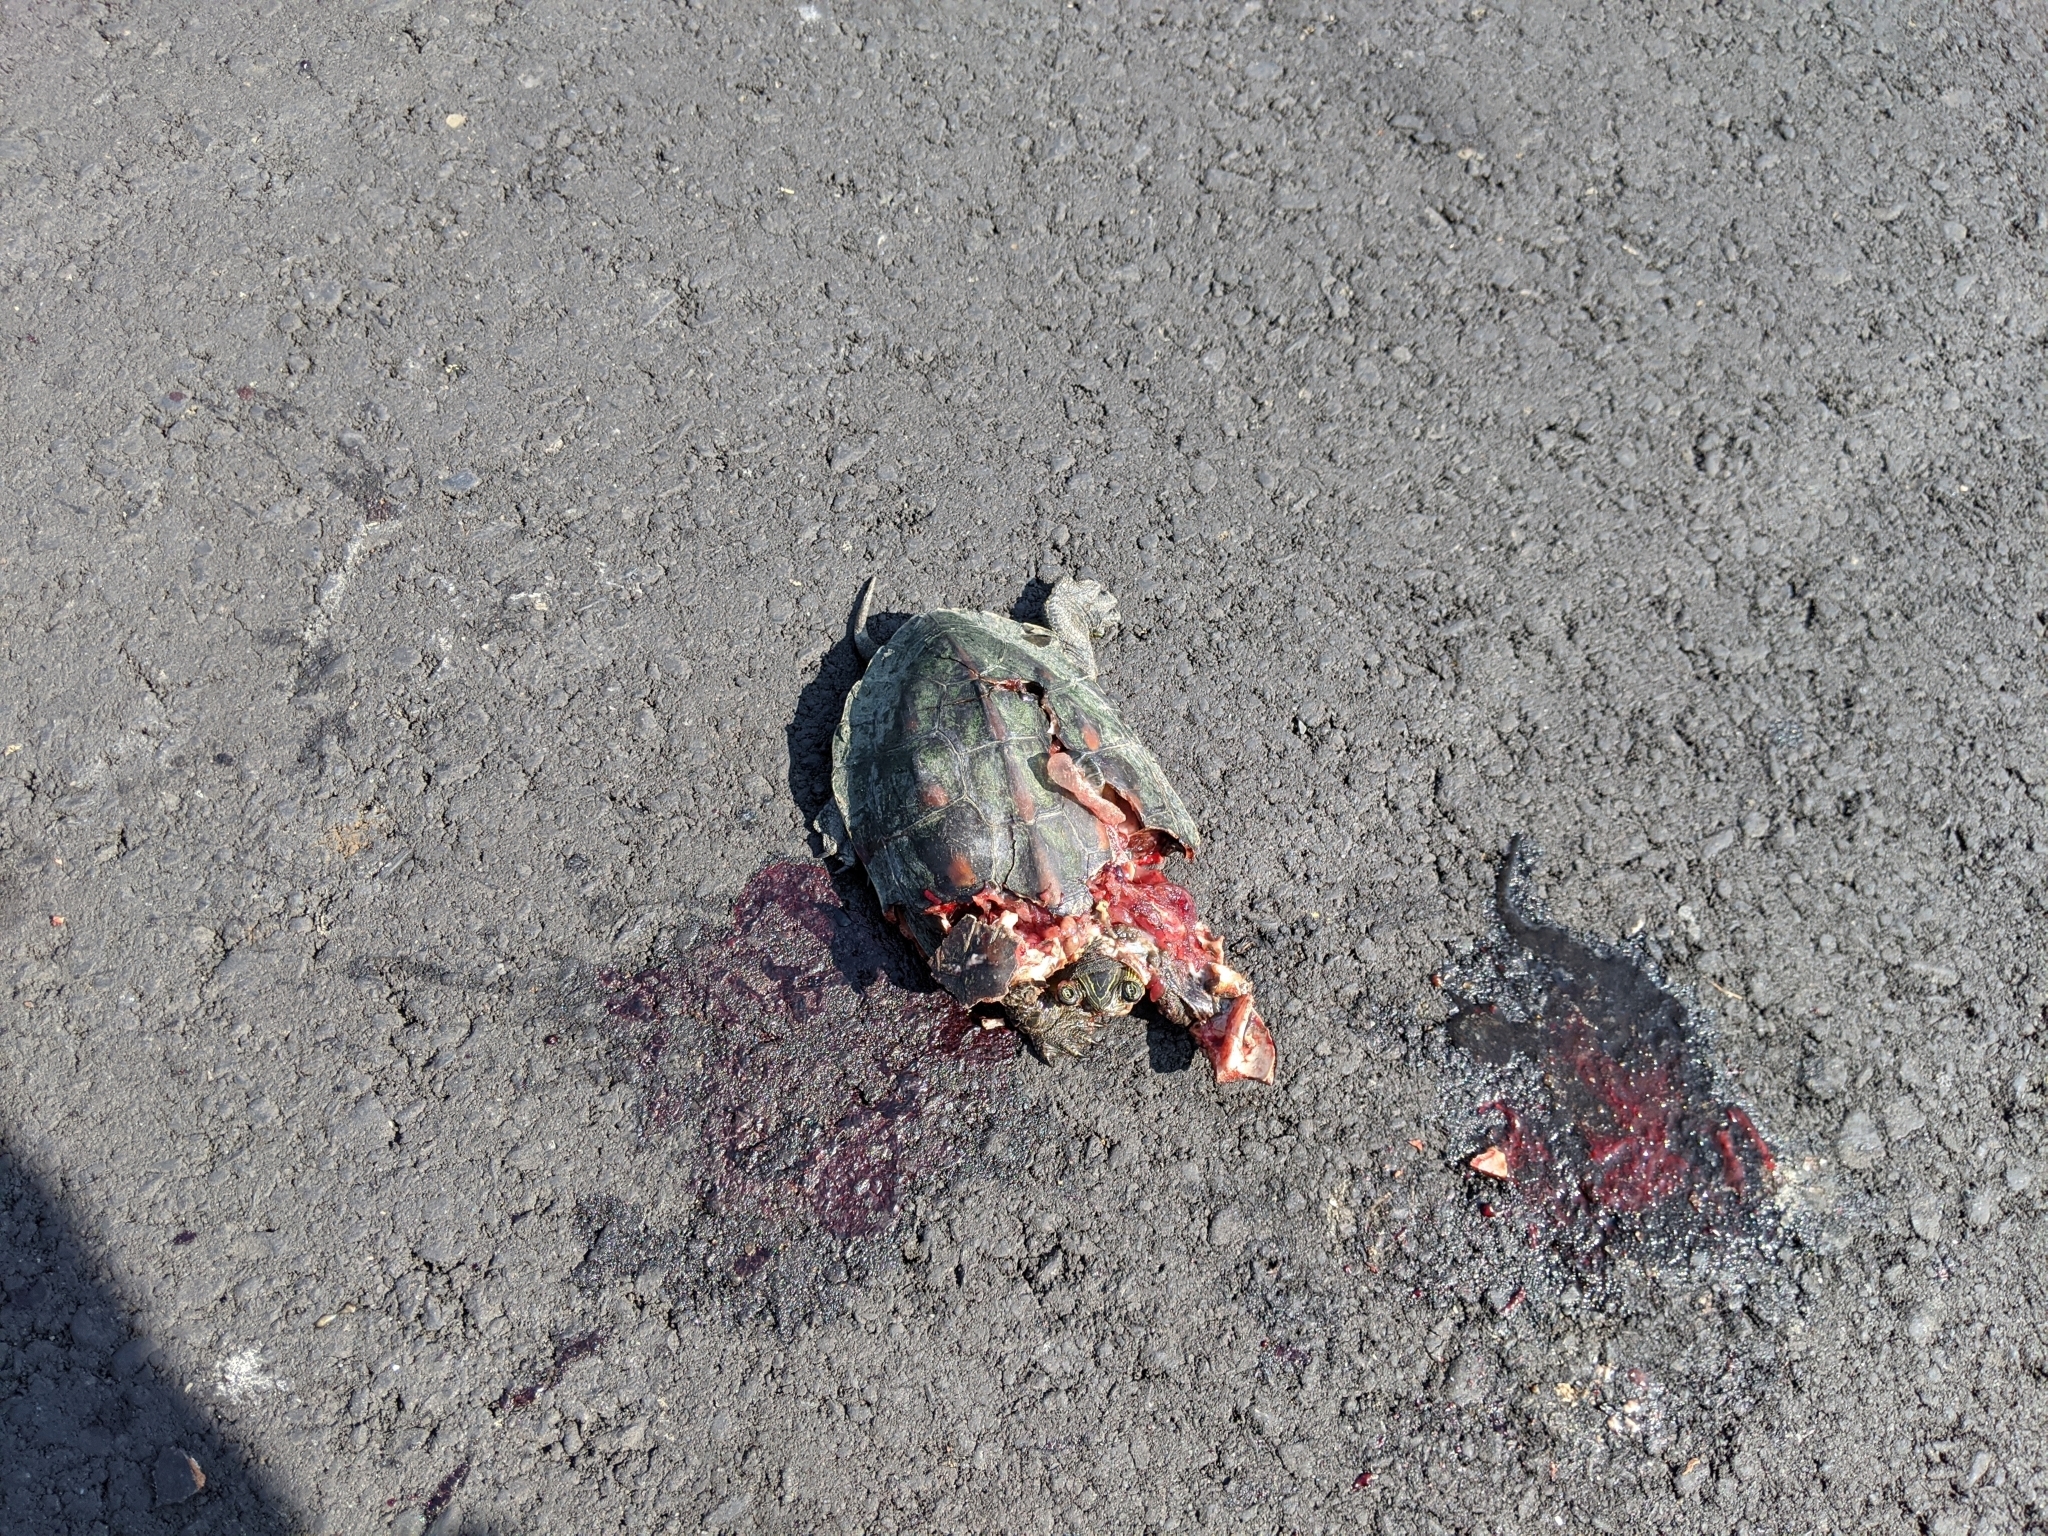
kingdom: Animalia
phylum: Chordata
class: Testudines
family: Geoemydidae
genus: Mauremys
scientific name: Mauremys sinensis
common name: Chinese stripe-necked turtle
